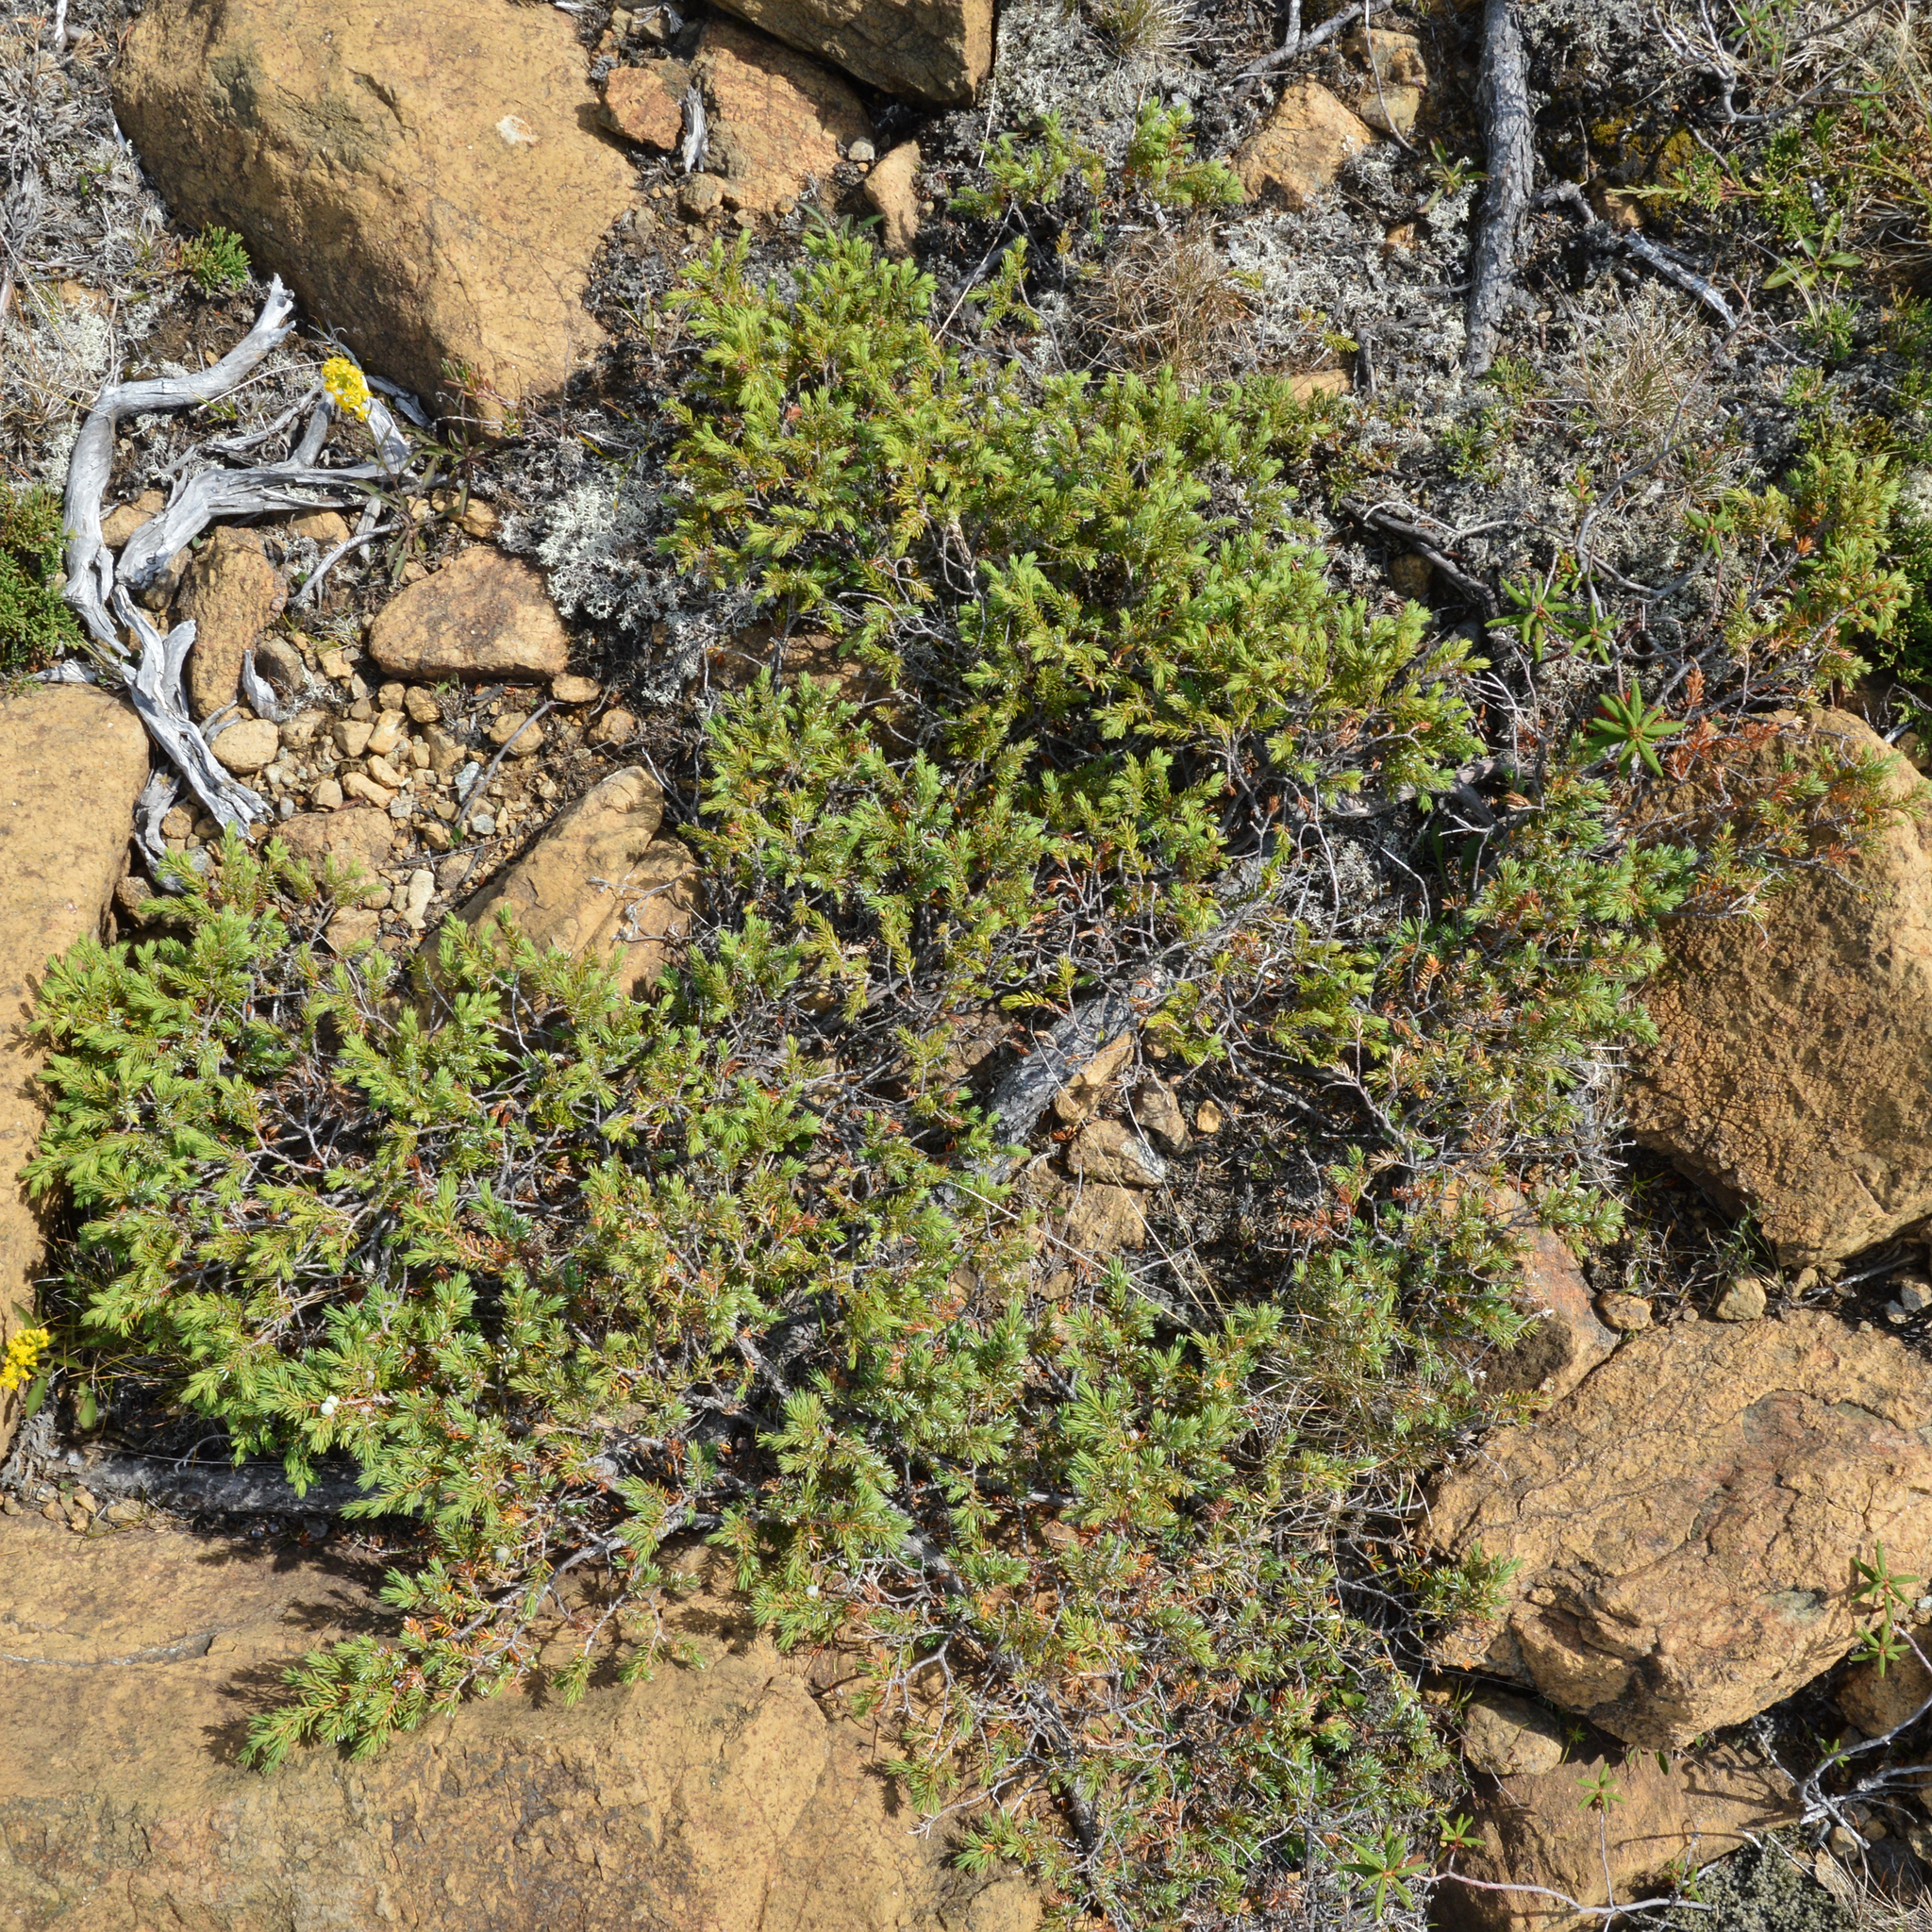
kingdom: Plantae
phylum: Tracheophyta
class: Pinopsida
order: Pinales
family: Cupressaceae
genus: Juniperus
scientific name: Juniperus communis
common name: Common juniper
